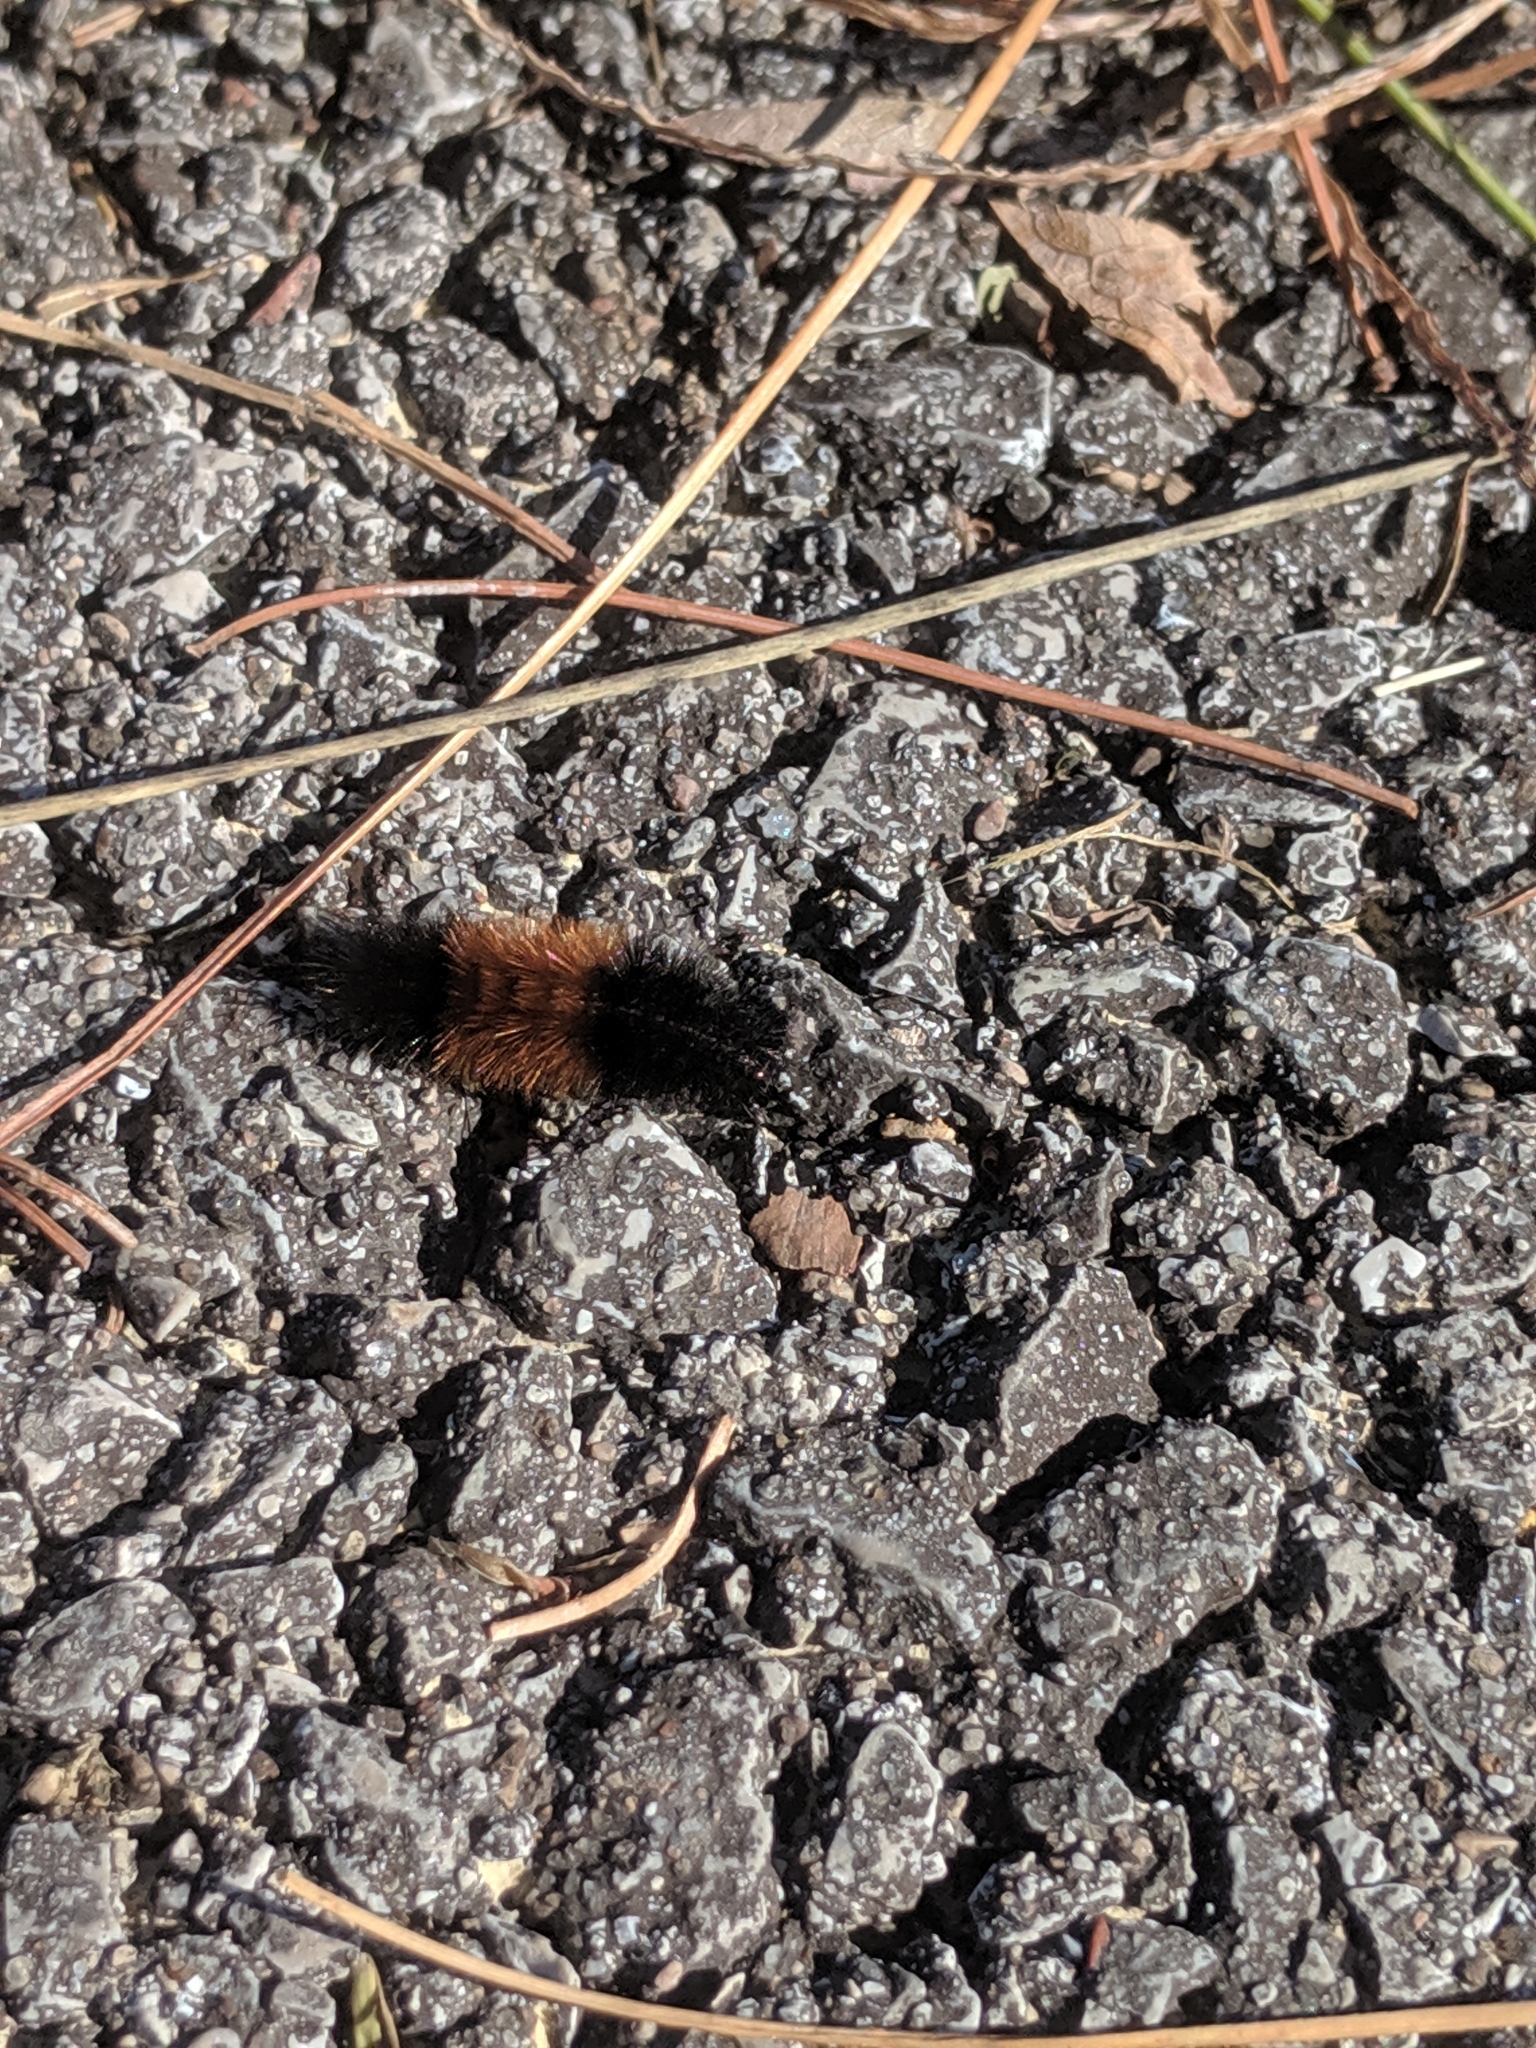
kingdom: Animalia
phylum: Arthropoda
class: Insecta
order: Lepidoptera
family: Erebidae
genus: Pyrrharctia
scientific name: Pyrrharctia isabella
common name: Isabella tiger moth
